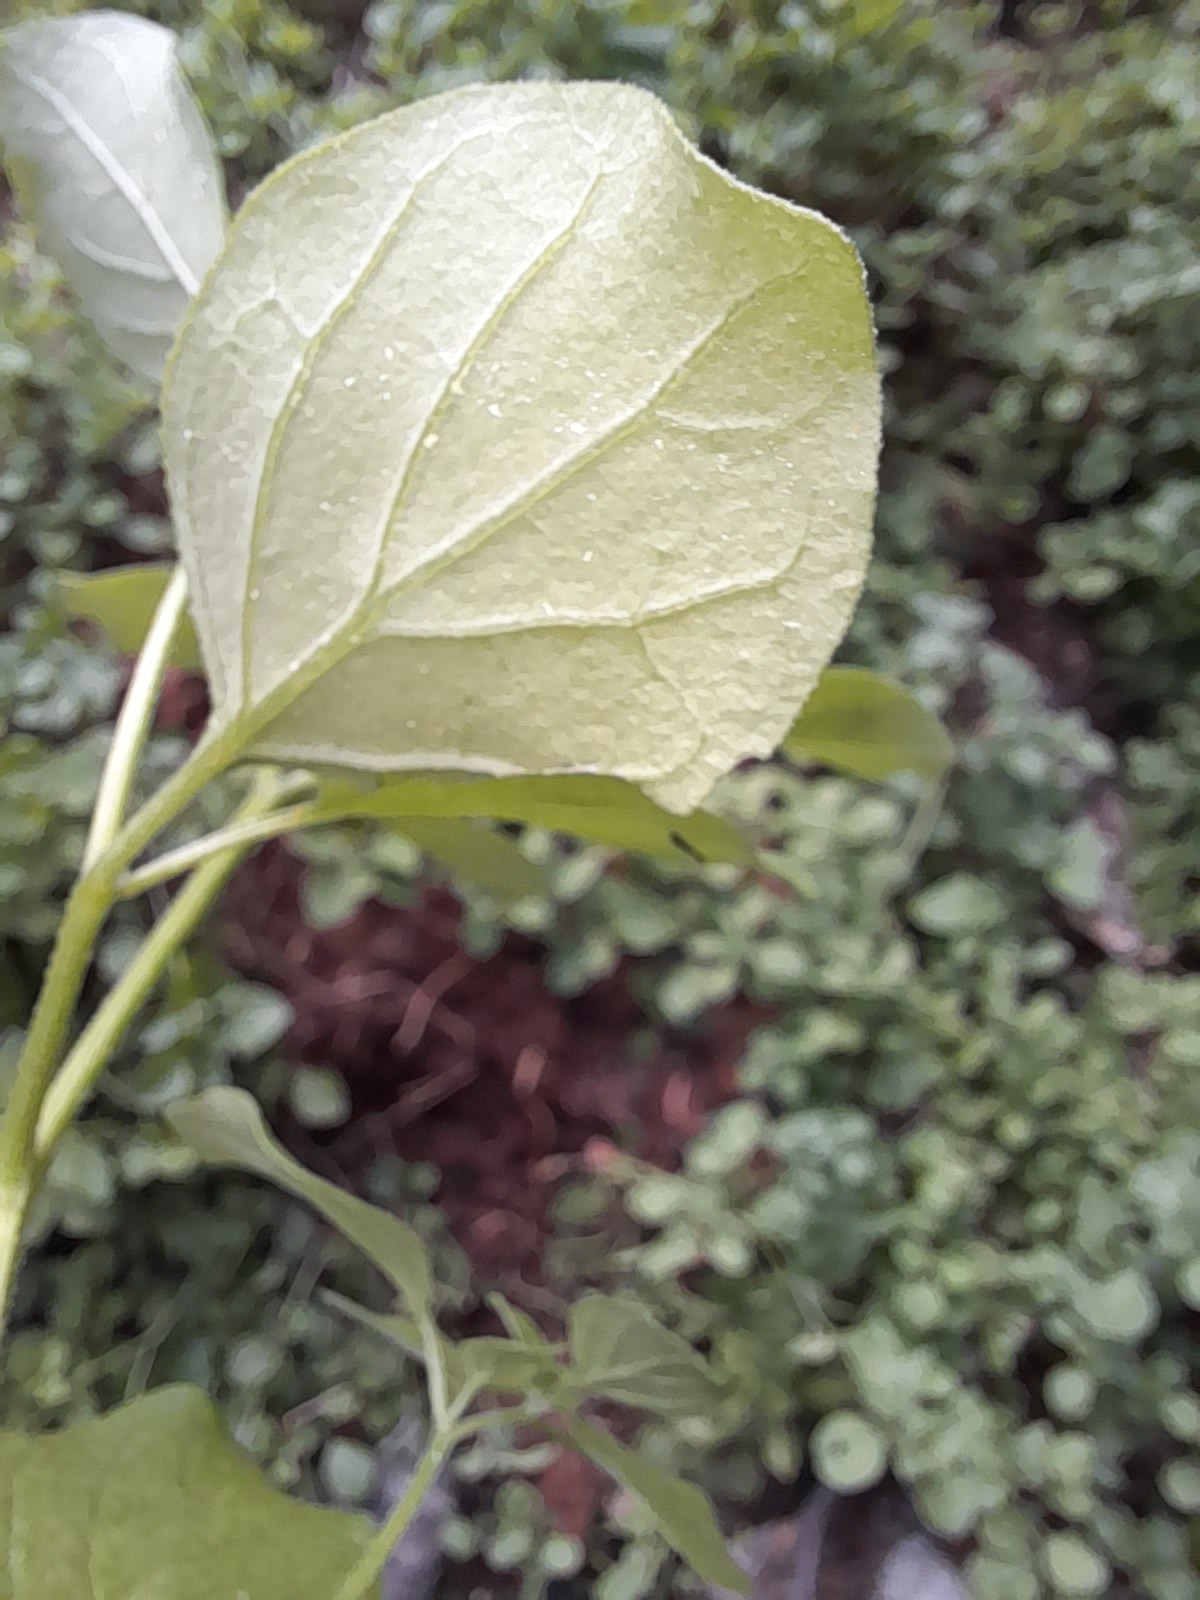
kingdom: Plantae
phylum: Tracheophyta
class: Magnoliopsida
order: Solanales
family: Solanaceae
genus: Salpichroa
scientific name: Salpichroa origanifolia
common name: Lily-of-the-valley-vine
